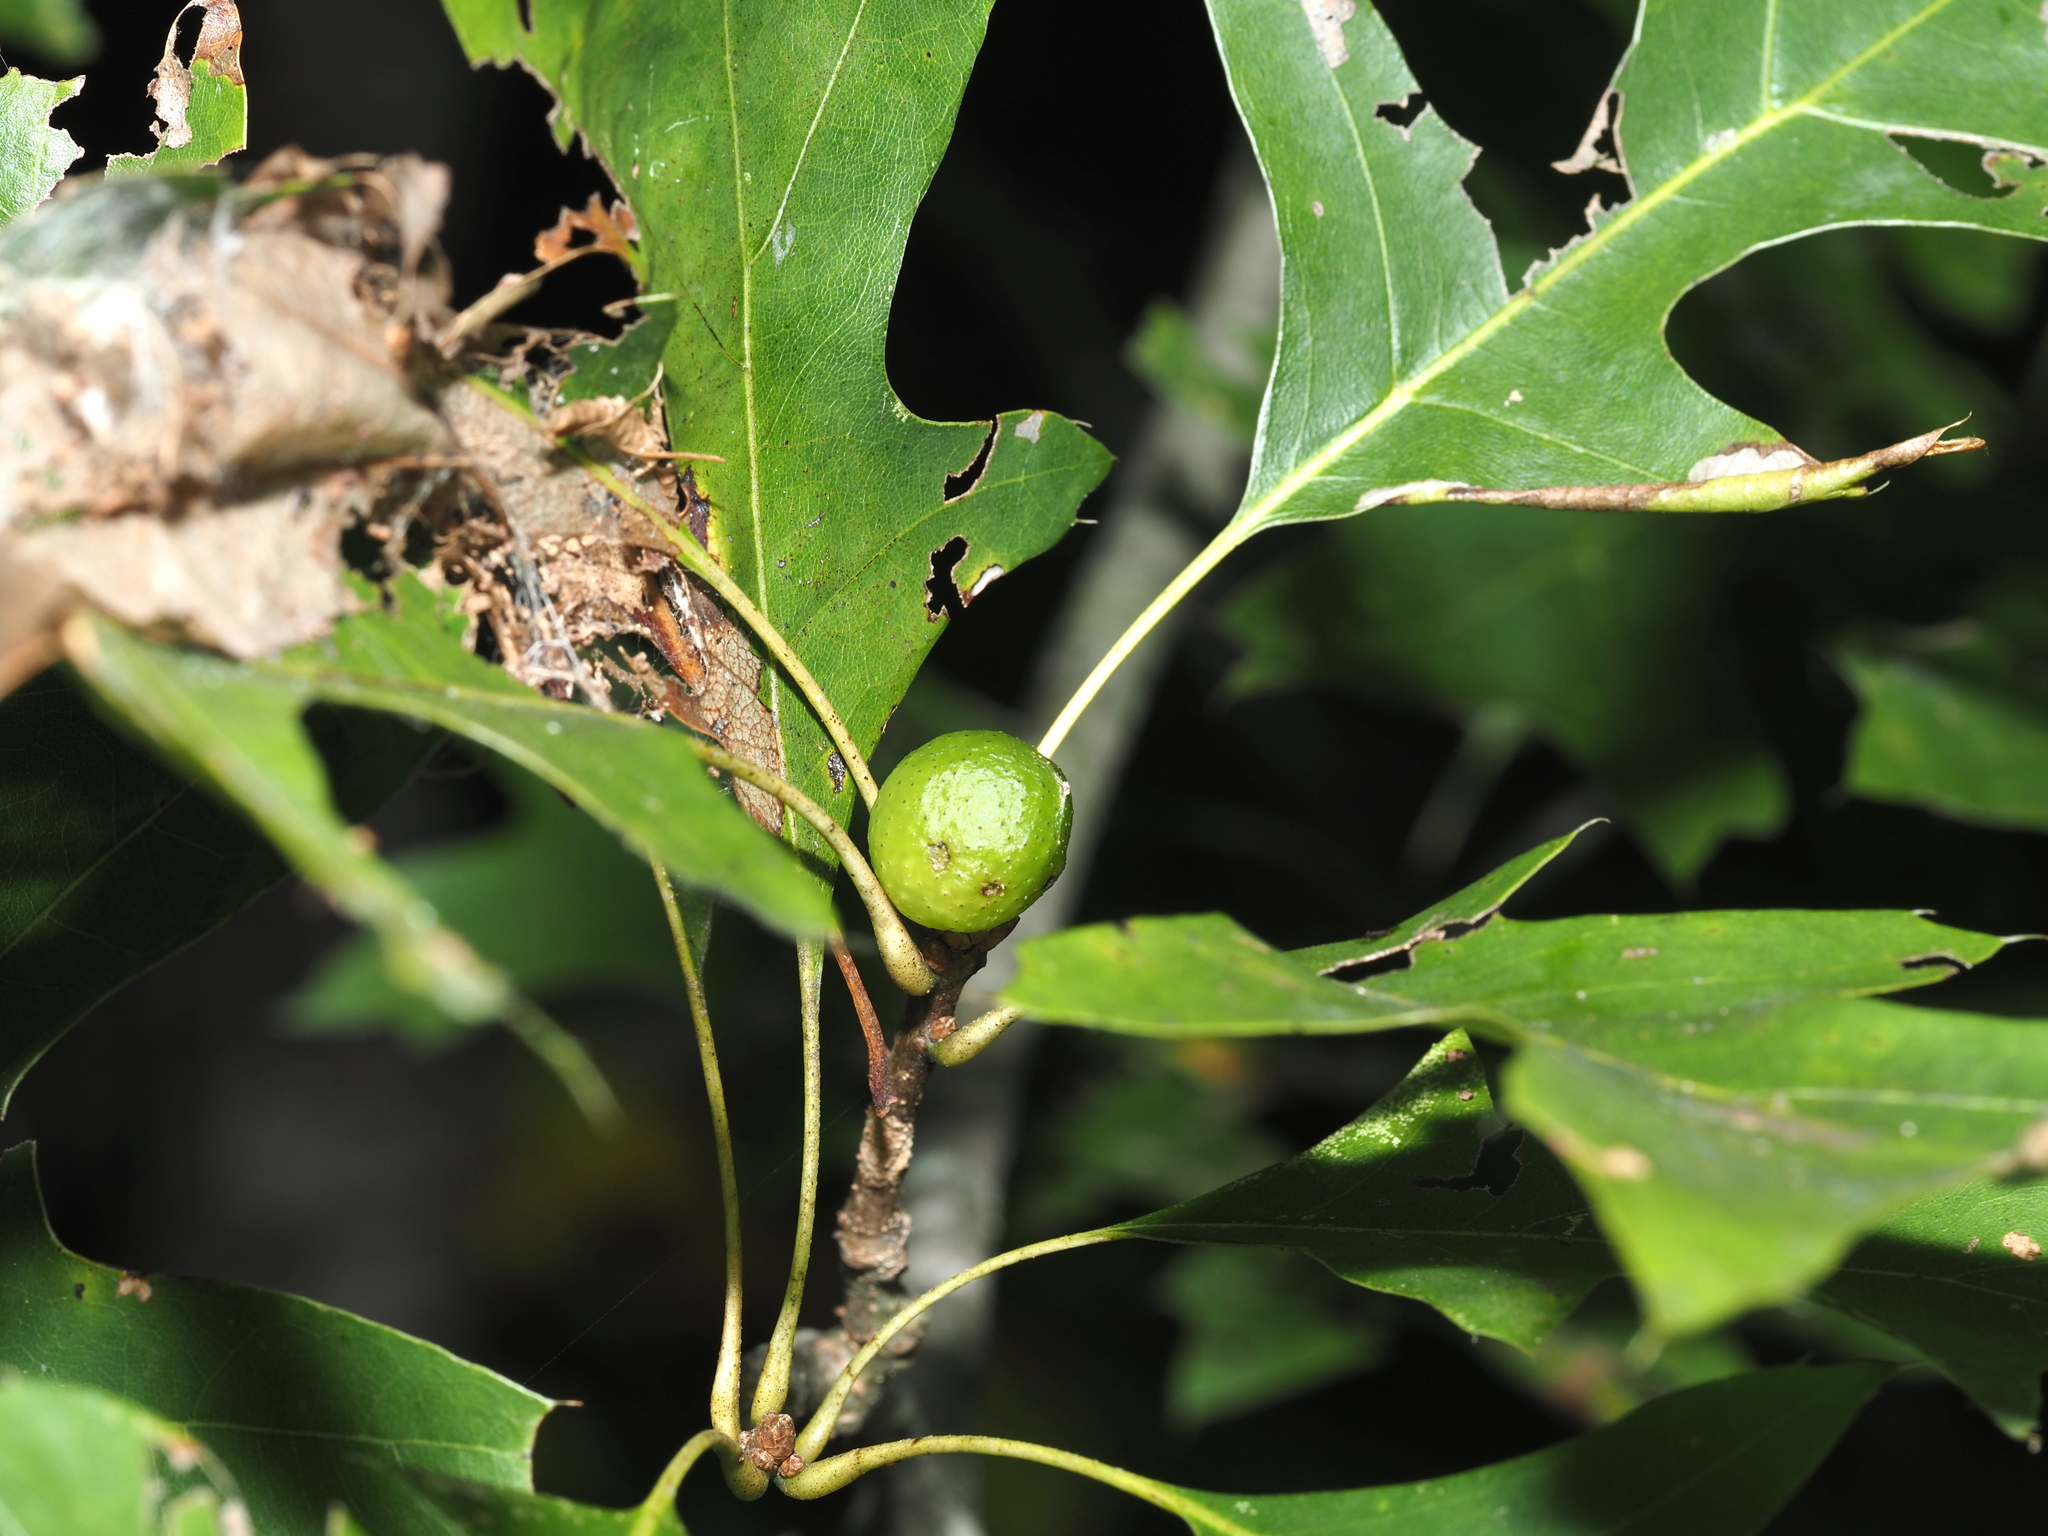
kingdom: Animalia
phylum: Arthropoda
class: Insecta
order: Hymenoptera
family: Cynipidae
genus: Amphibolips
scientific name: Amphibolips
